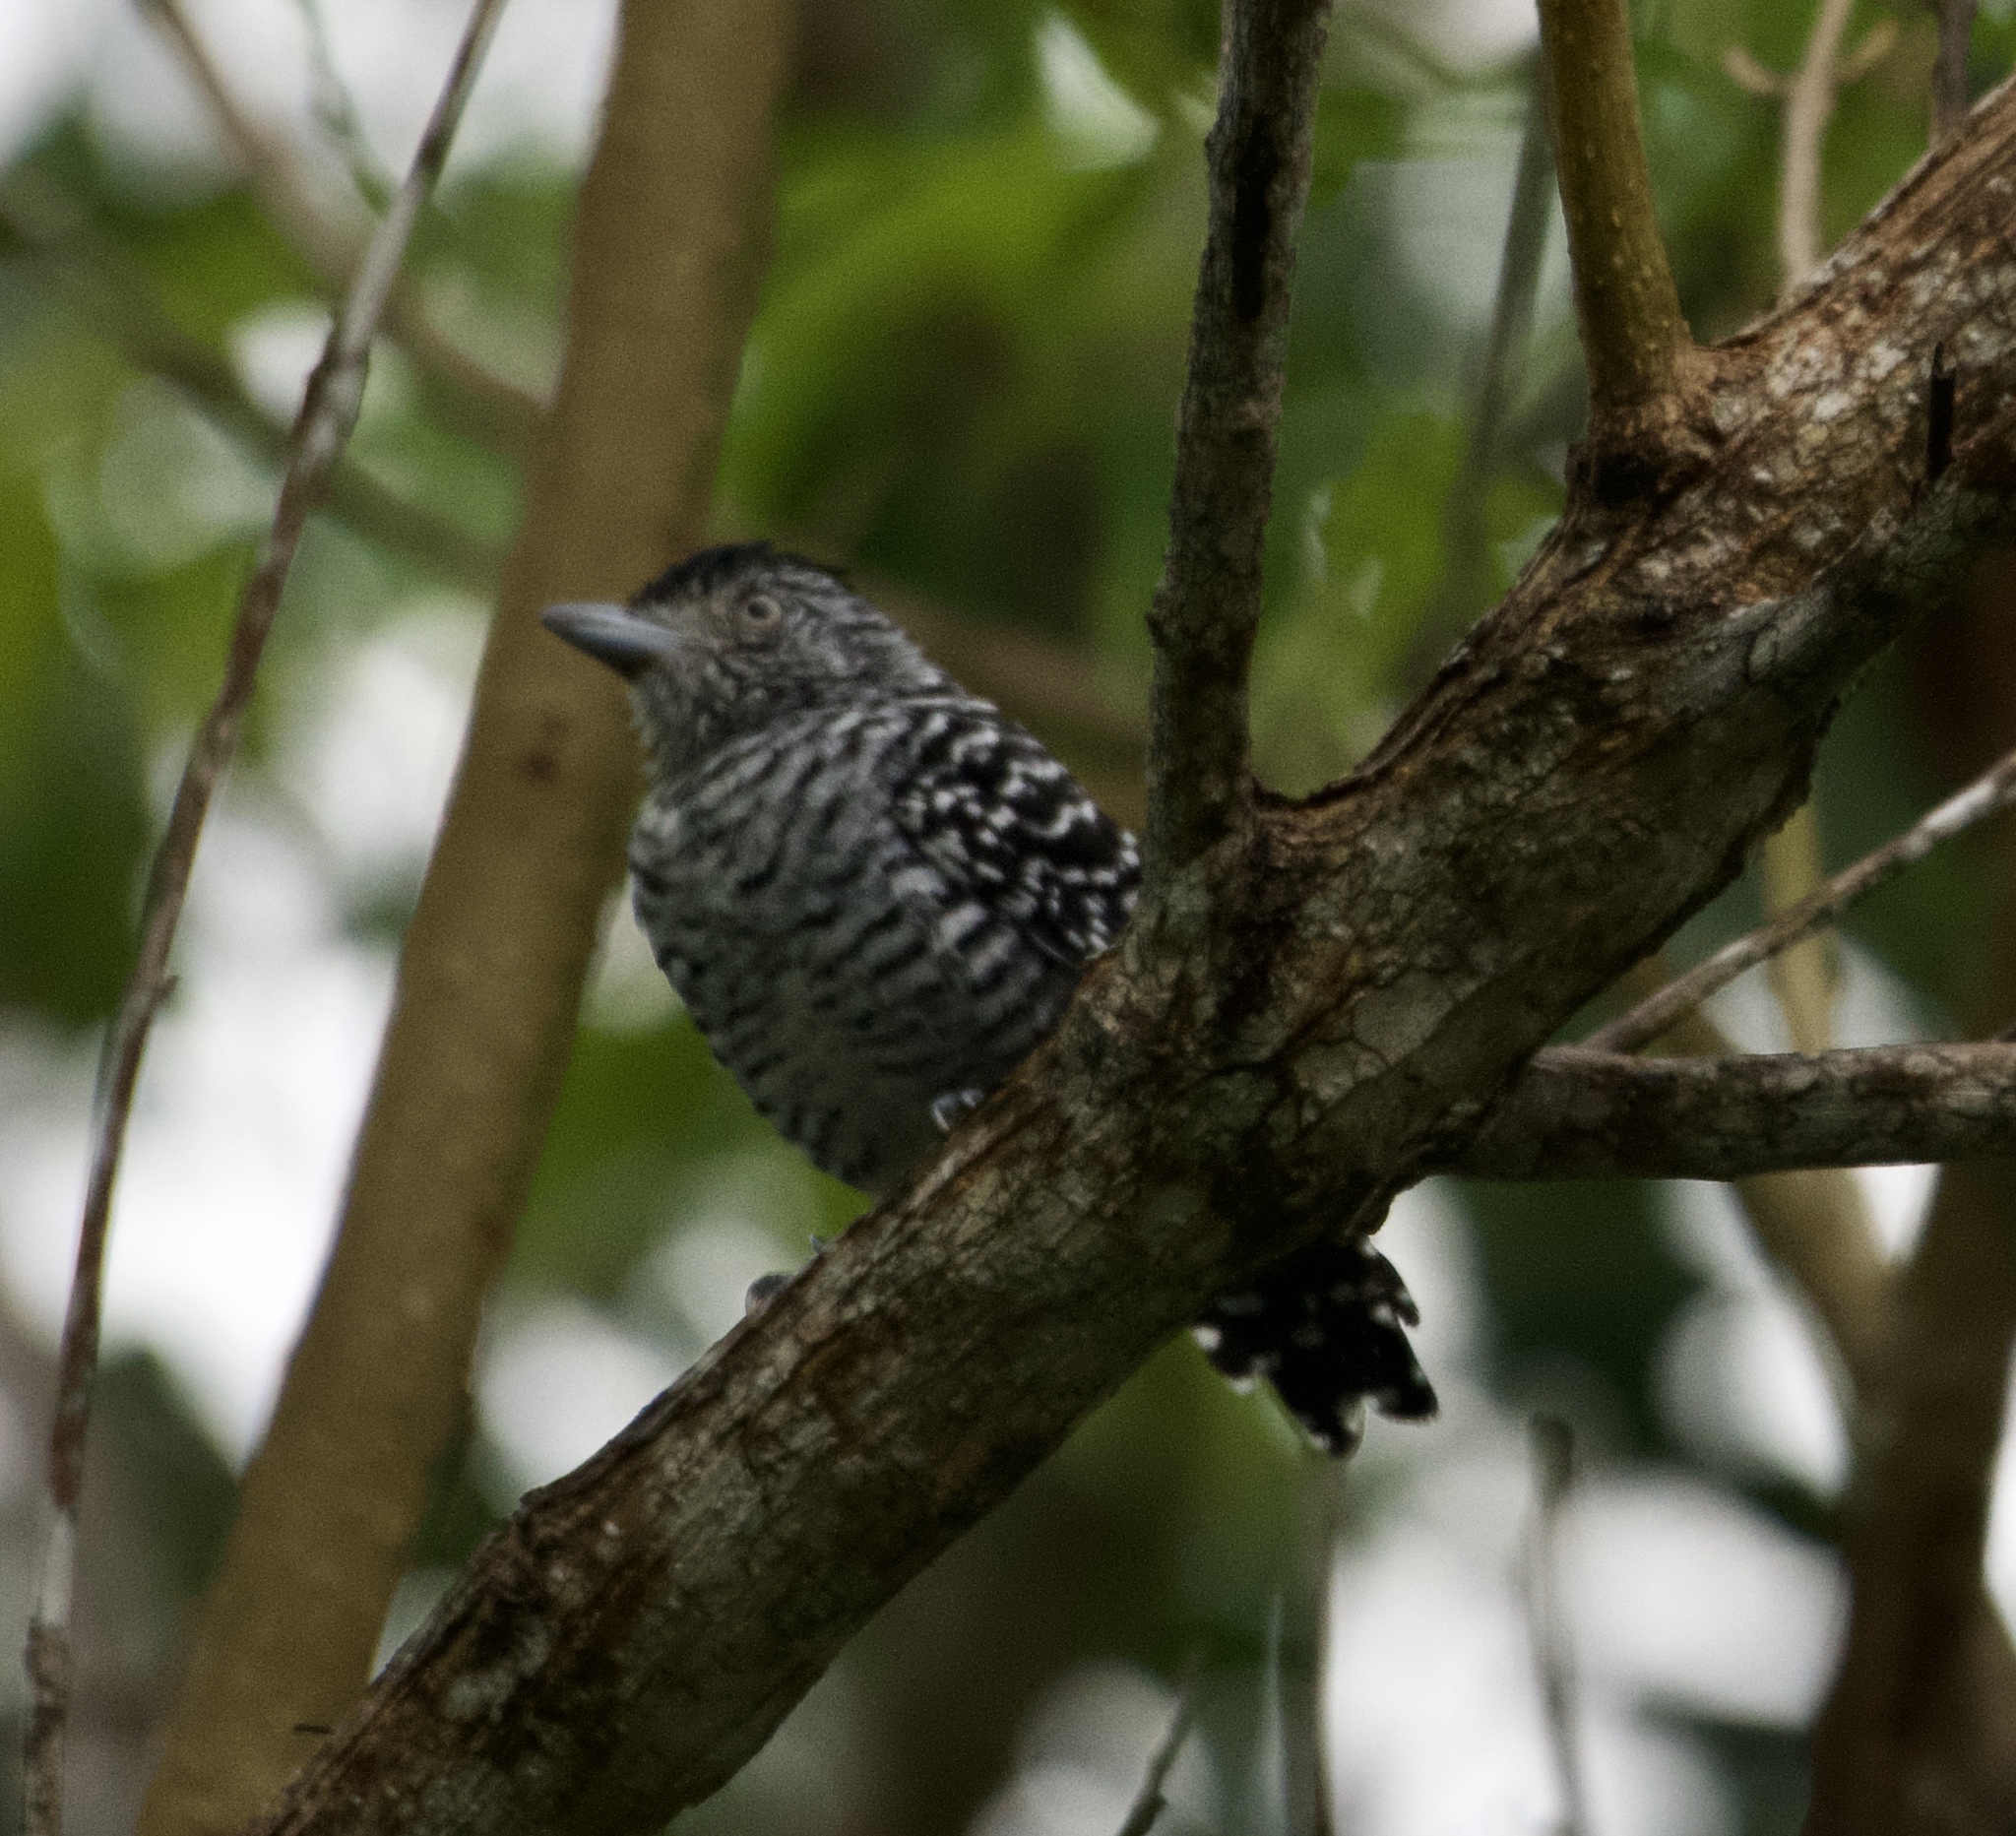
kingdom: Animalia
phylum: Chordata
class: Aves
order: Passeriformes
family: Thamnophilidae
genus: Thamnophilus
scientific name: Thamnophilus doliatus
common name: Barred antshrike
